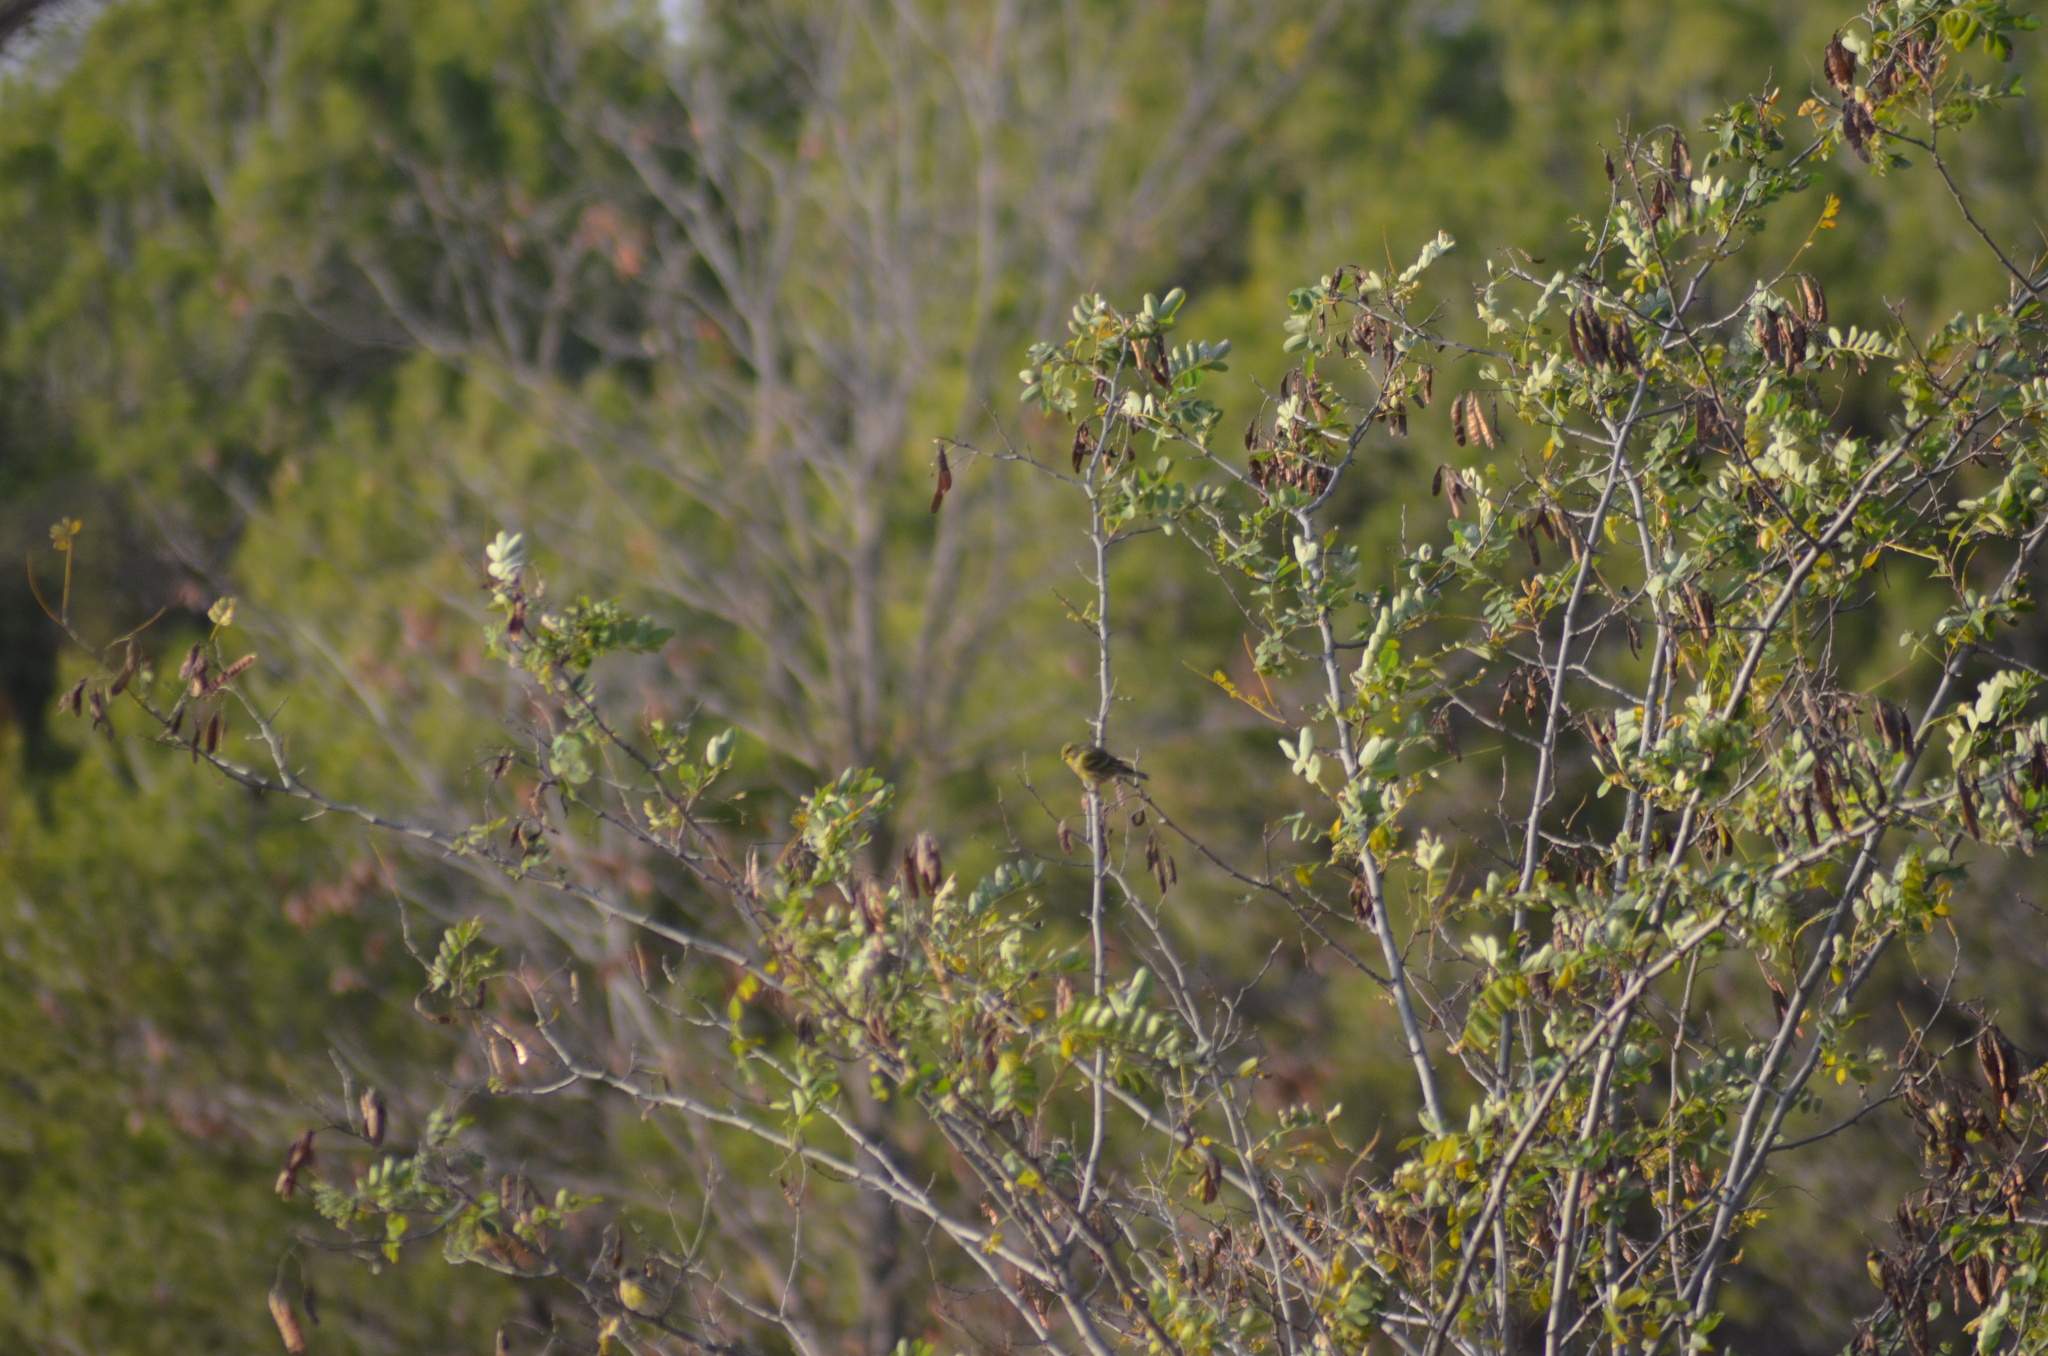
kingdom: Animalia
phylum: Chordata
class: Aves
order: Passeriformes
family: Fringillidae
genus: Serinus
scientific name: Serinus serinus
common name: European serin
